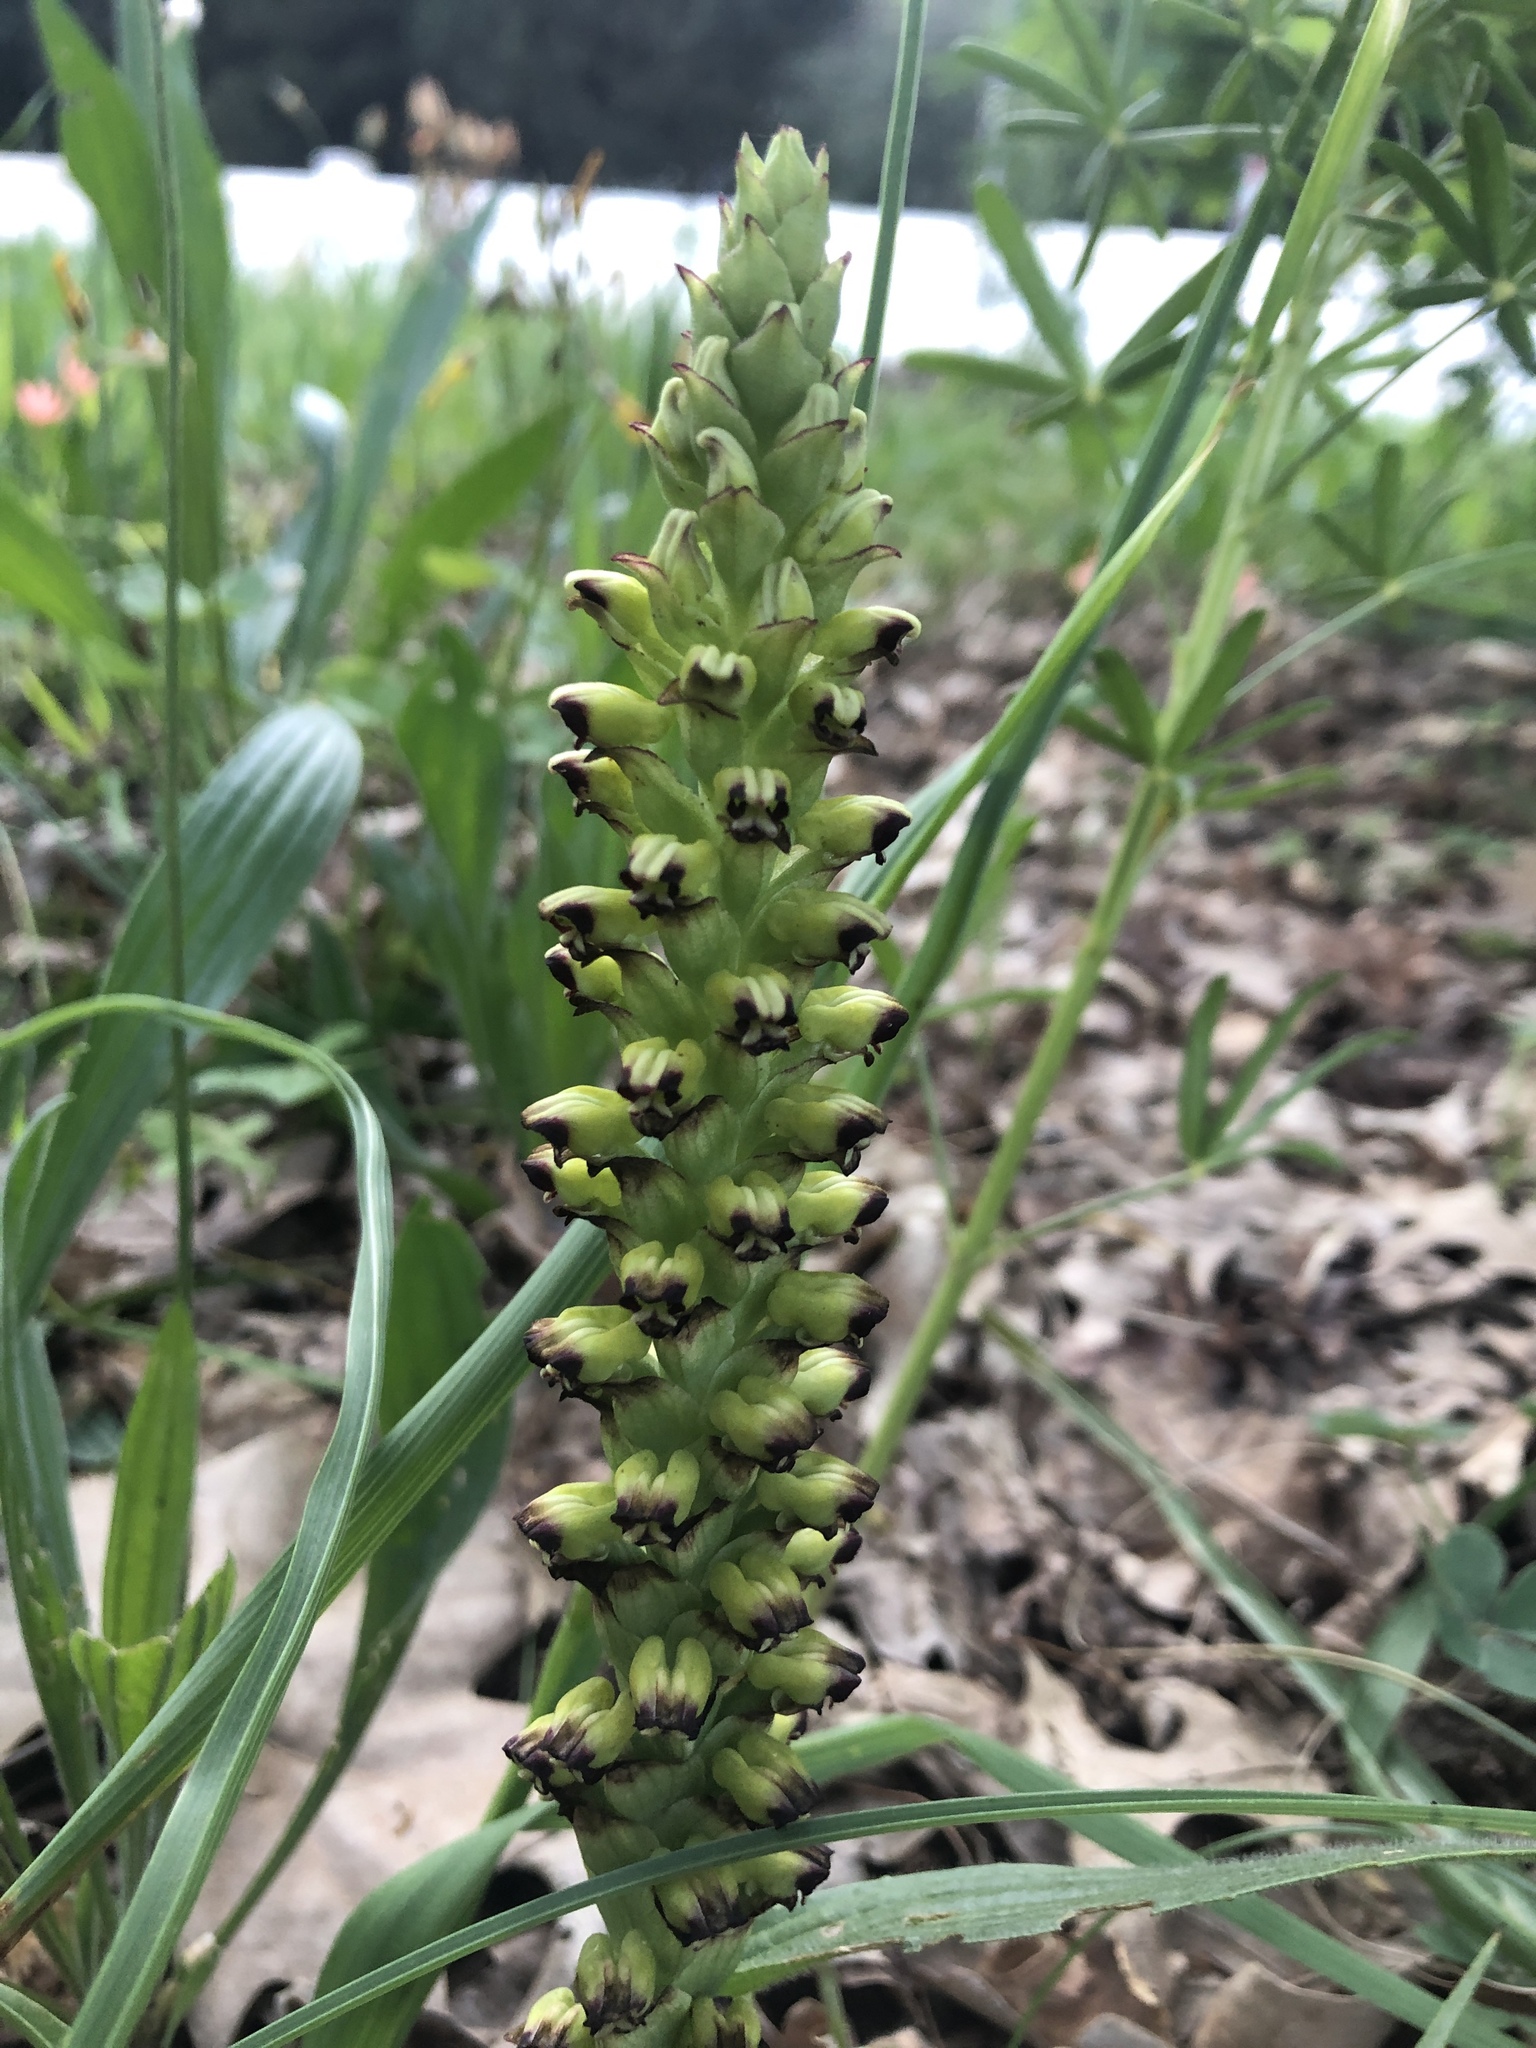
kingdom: Plantae
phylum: Tracheophyta
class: Liliopsida
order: Asparagales
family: Orchidaceae
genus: Corycium
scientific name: Corycium orobanchoides
